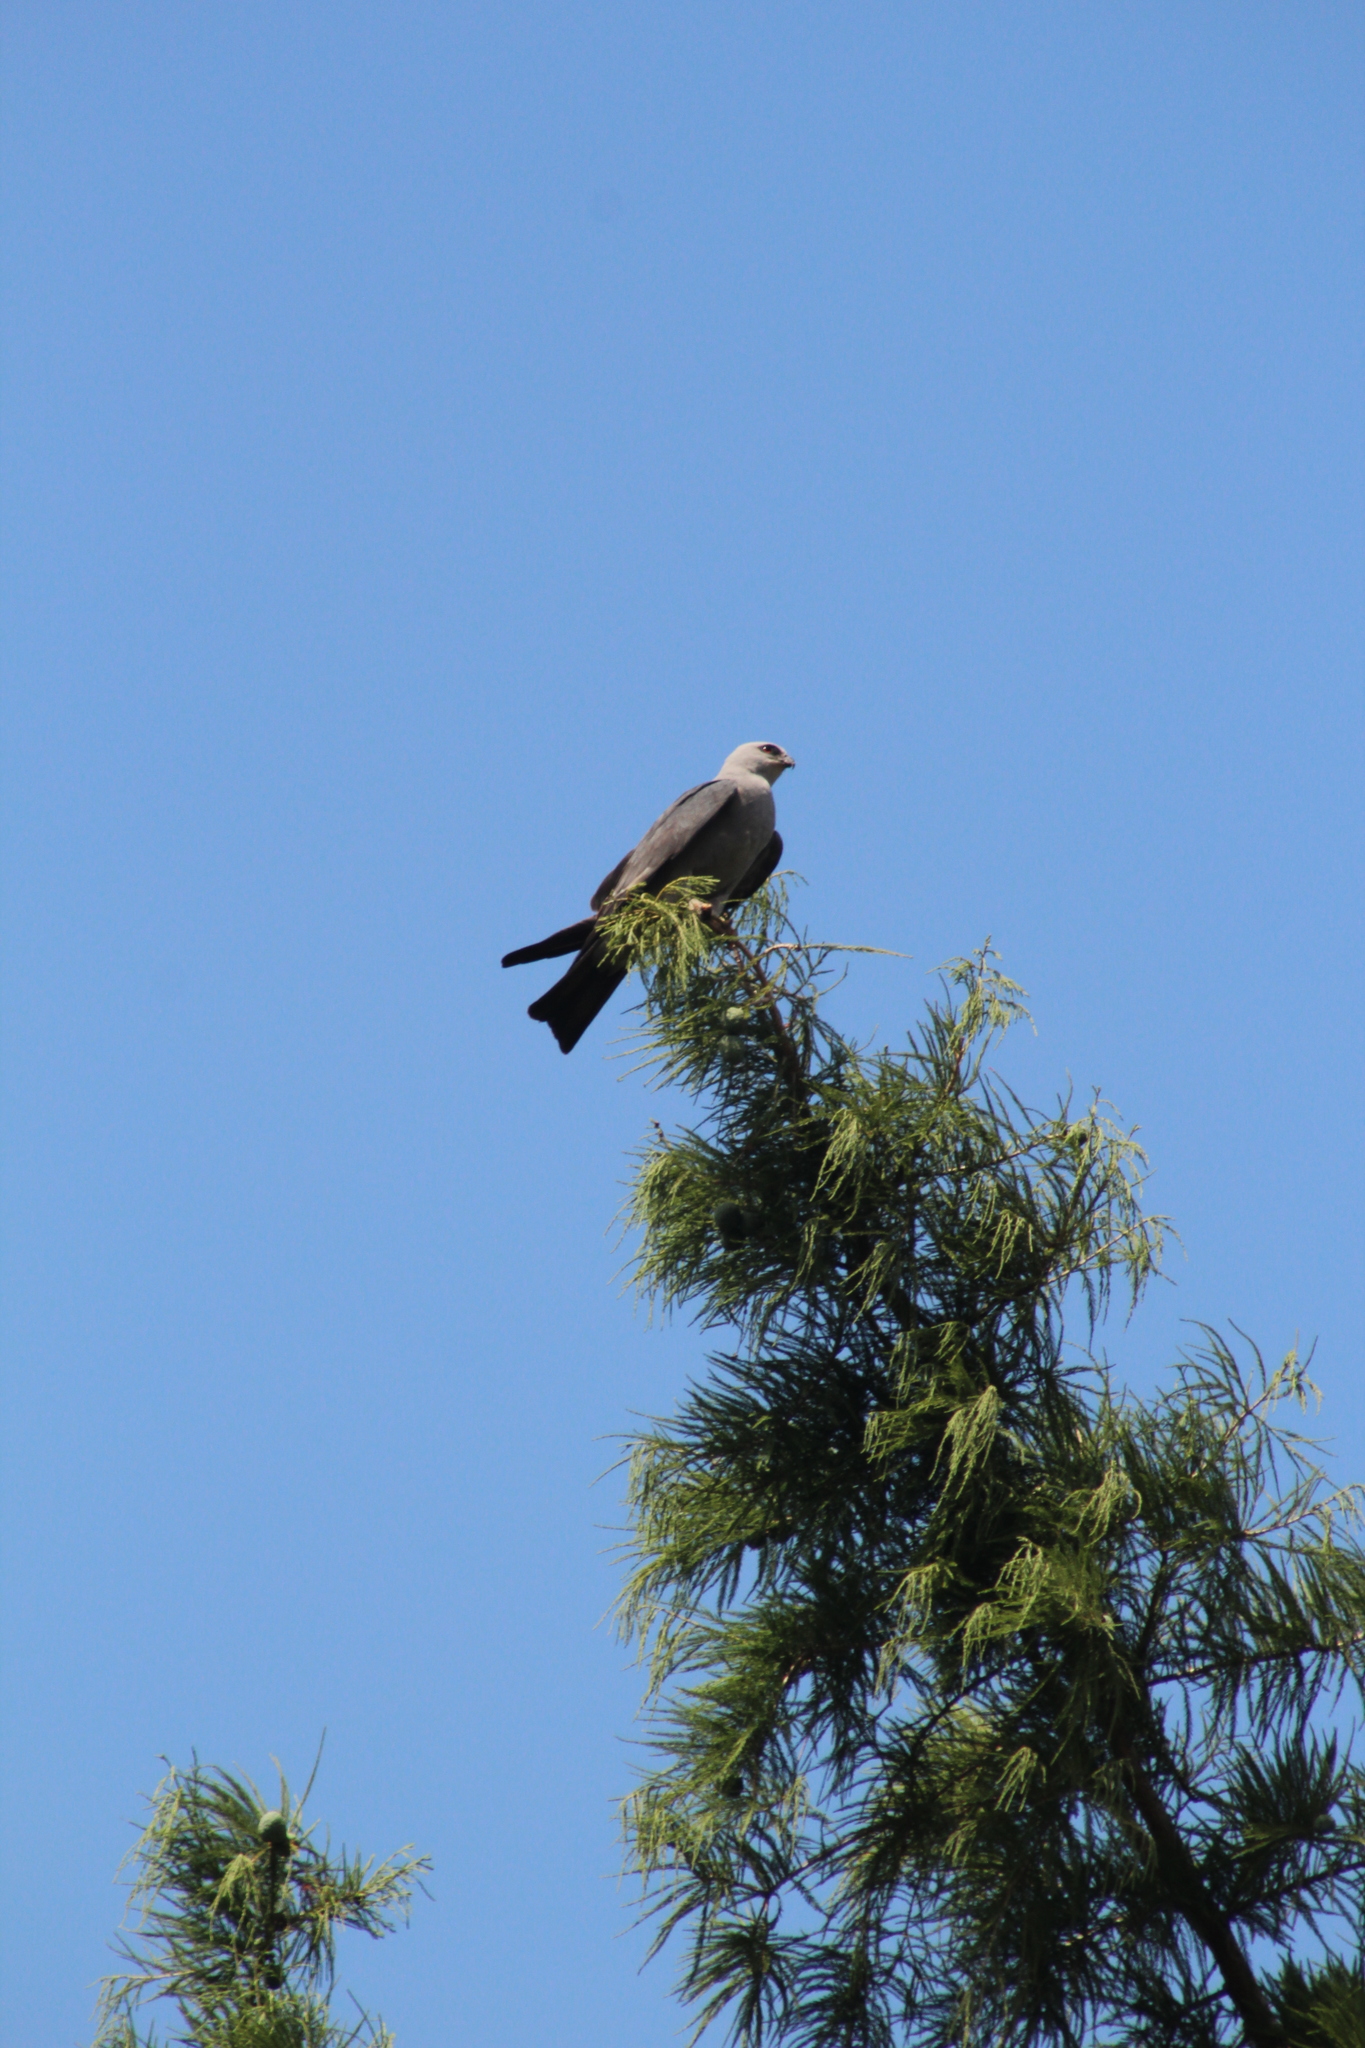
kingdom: Animalia
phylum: Chordata
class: Aves
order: Accipitriformes
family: Accipitridae
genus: Ictinia
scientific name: Ictinia mississippiensis
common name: Mississippi kite
